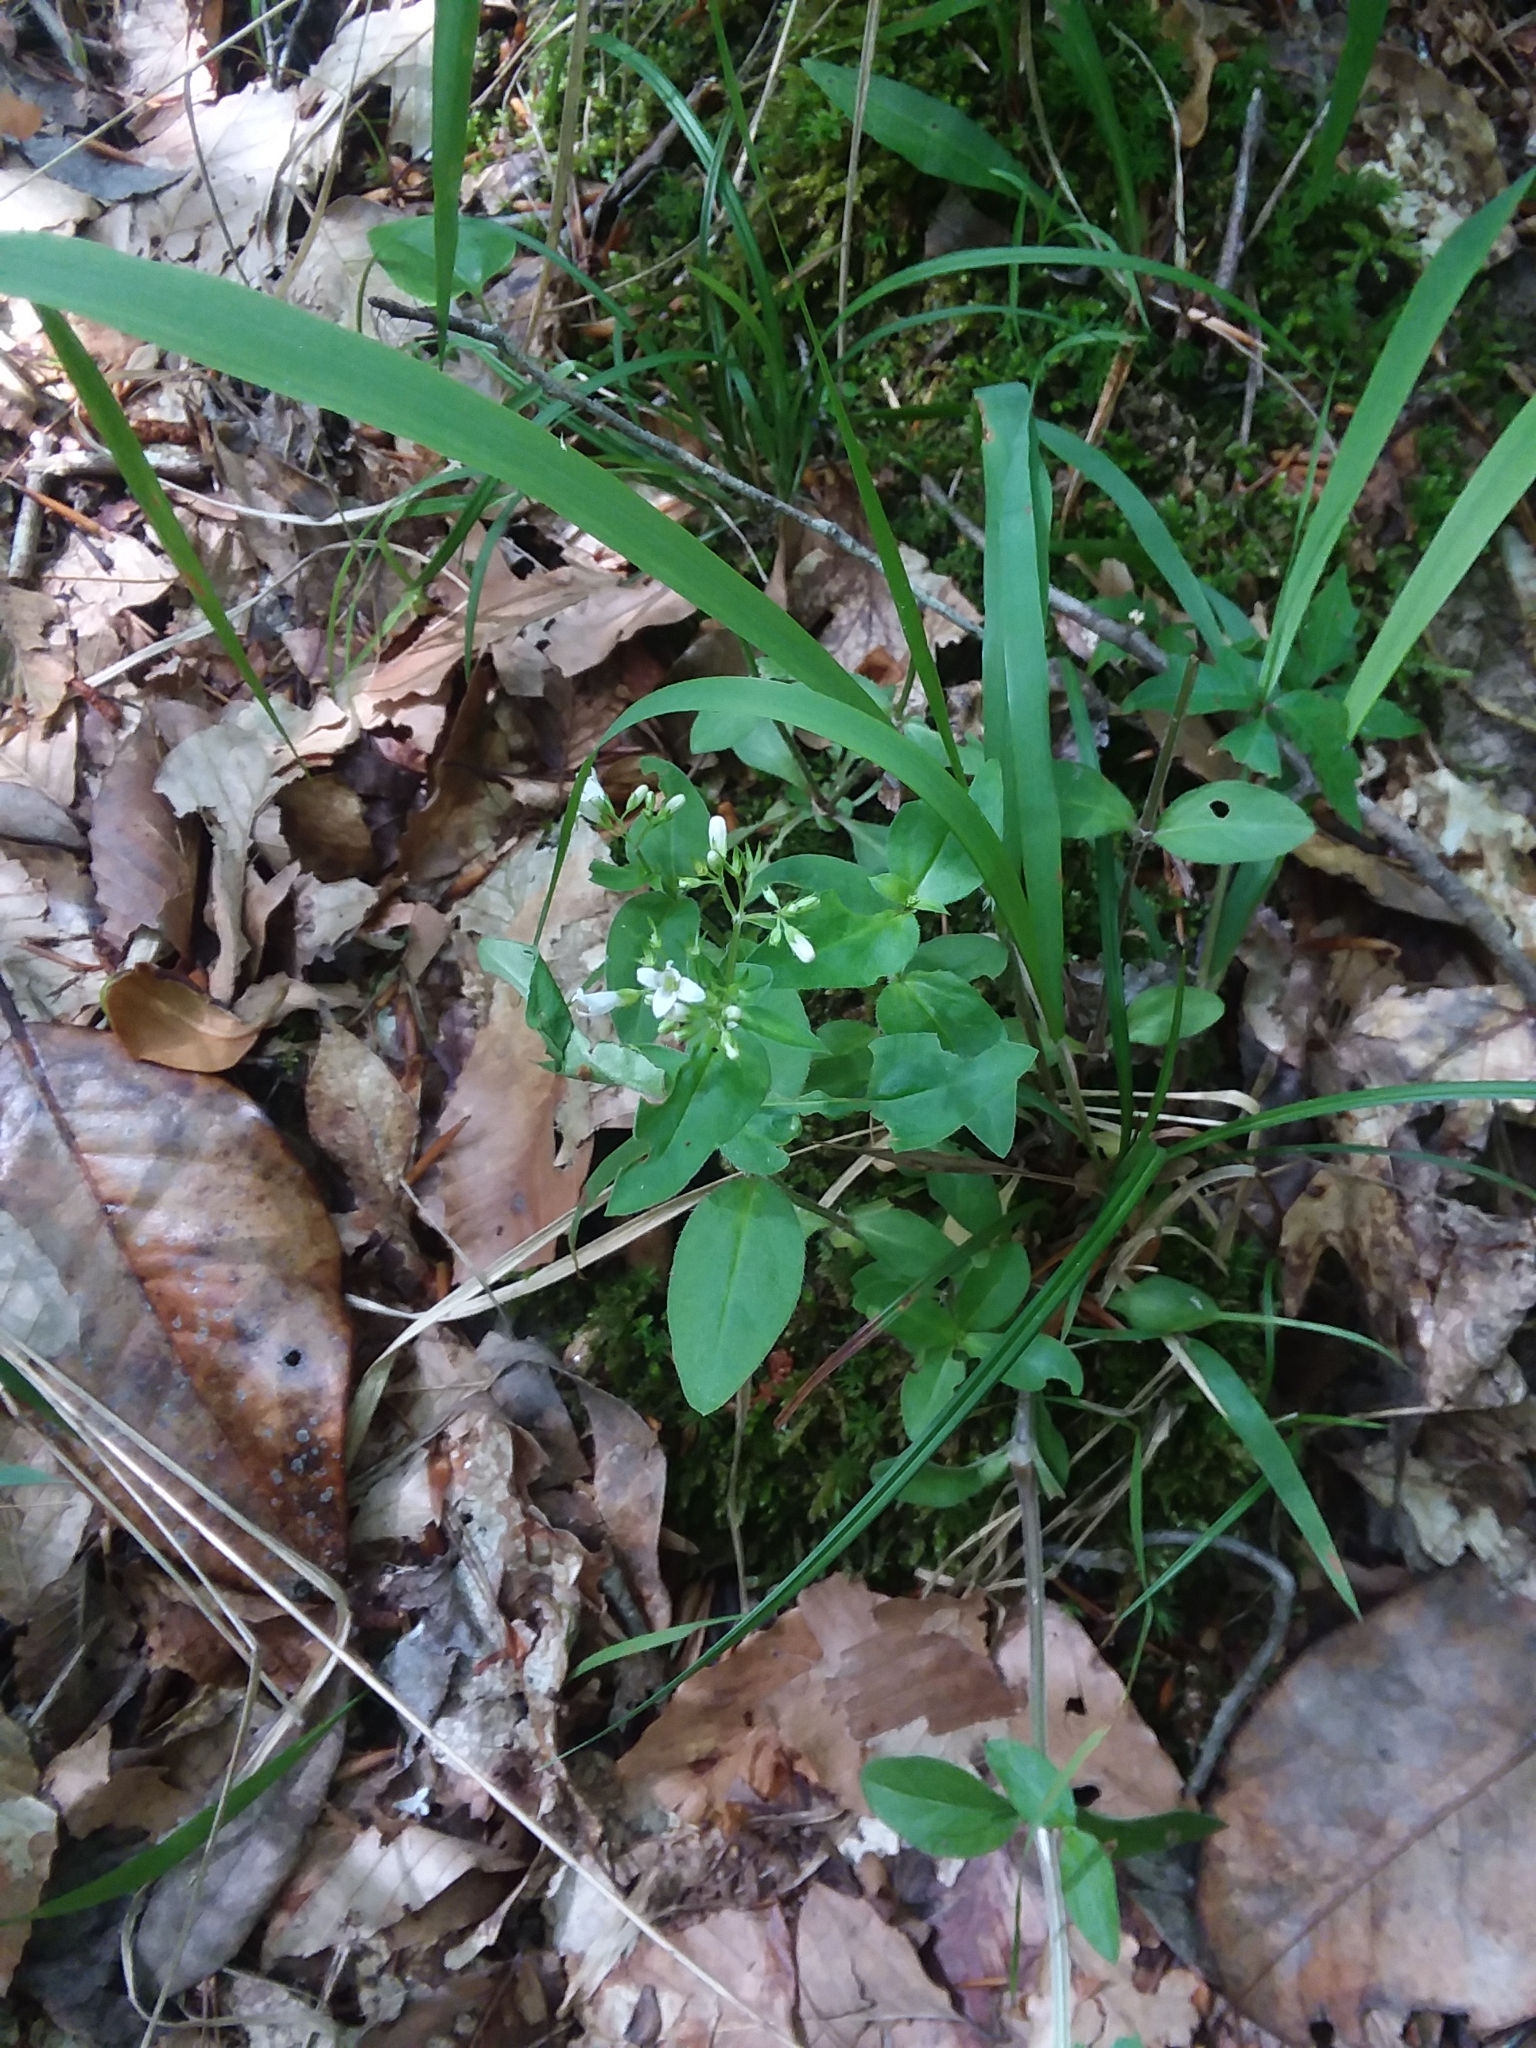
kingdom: Plantae
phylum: Tracheophyta
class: Magnoliopsida
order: Gentianales
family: Rubiaceae
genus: Houstonia
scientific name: Houstonia purpurea
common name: Summer bluet
